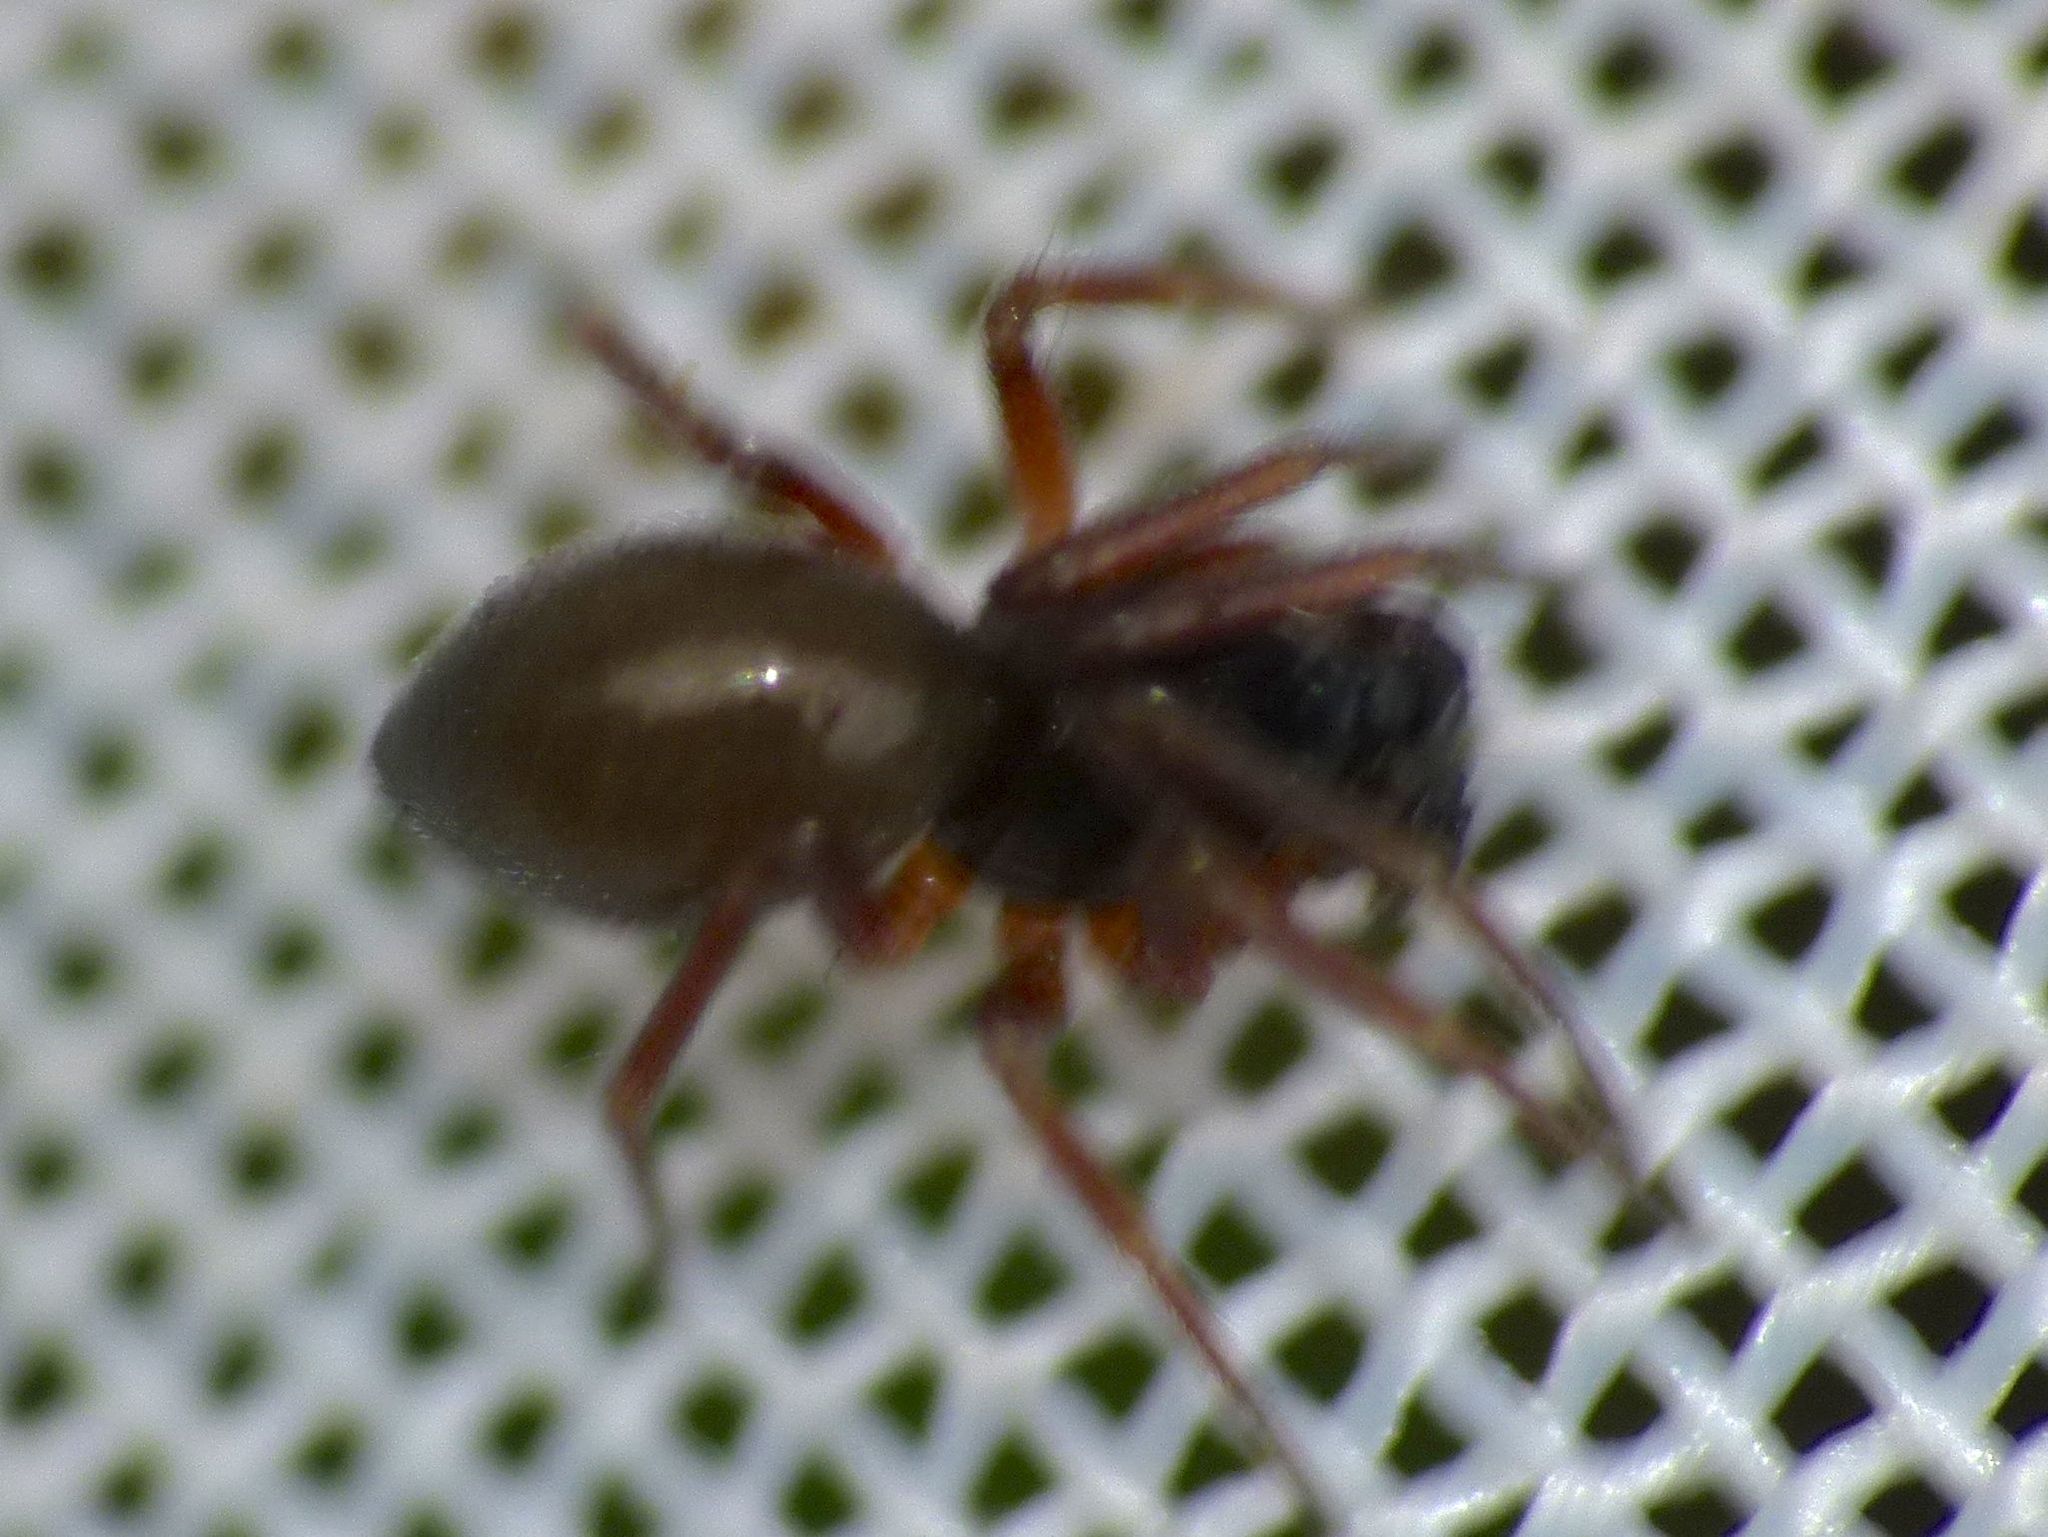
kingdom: Animalia
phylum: Arthropoda
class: Arachnida
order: Araneae
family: Linyphiidae
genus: Diplocephalus
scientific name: Diplocephalus cristatus
